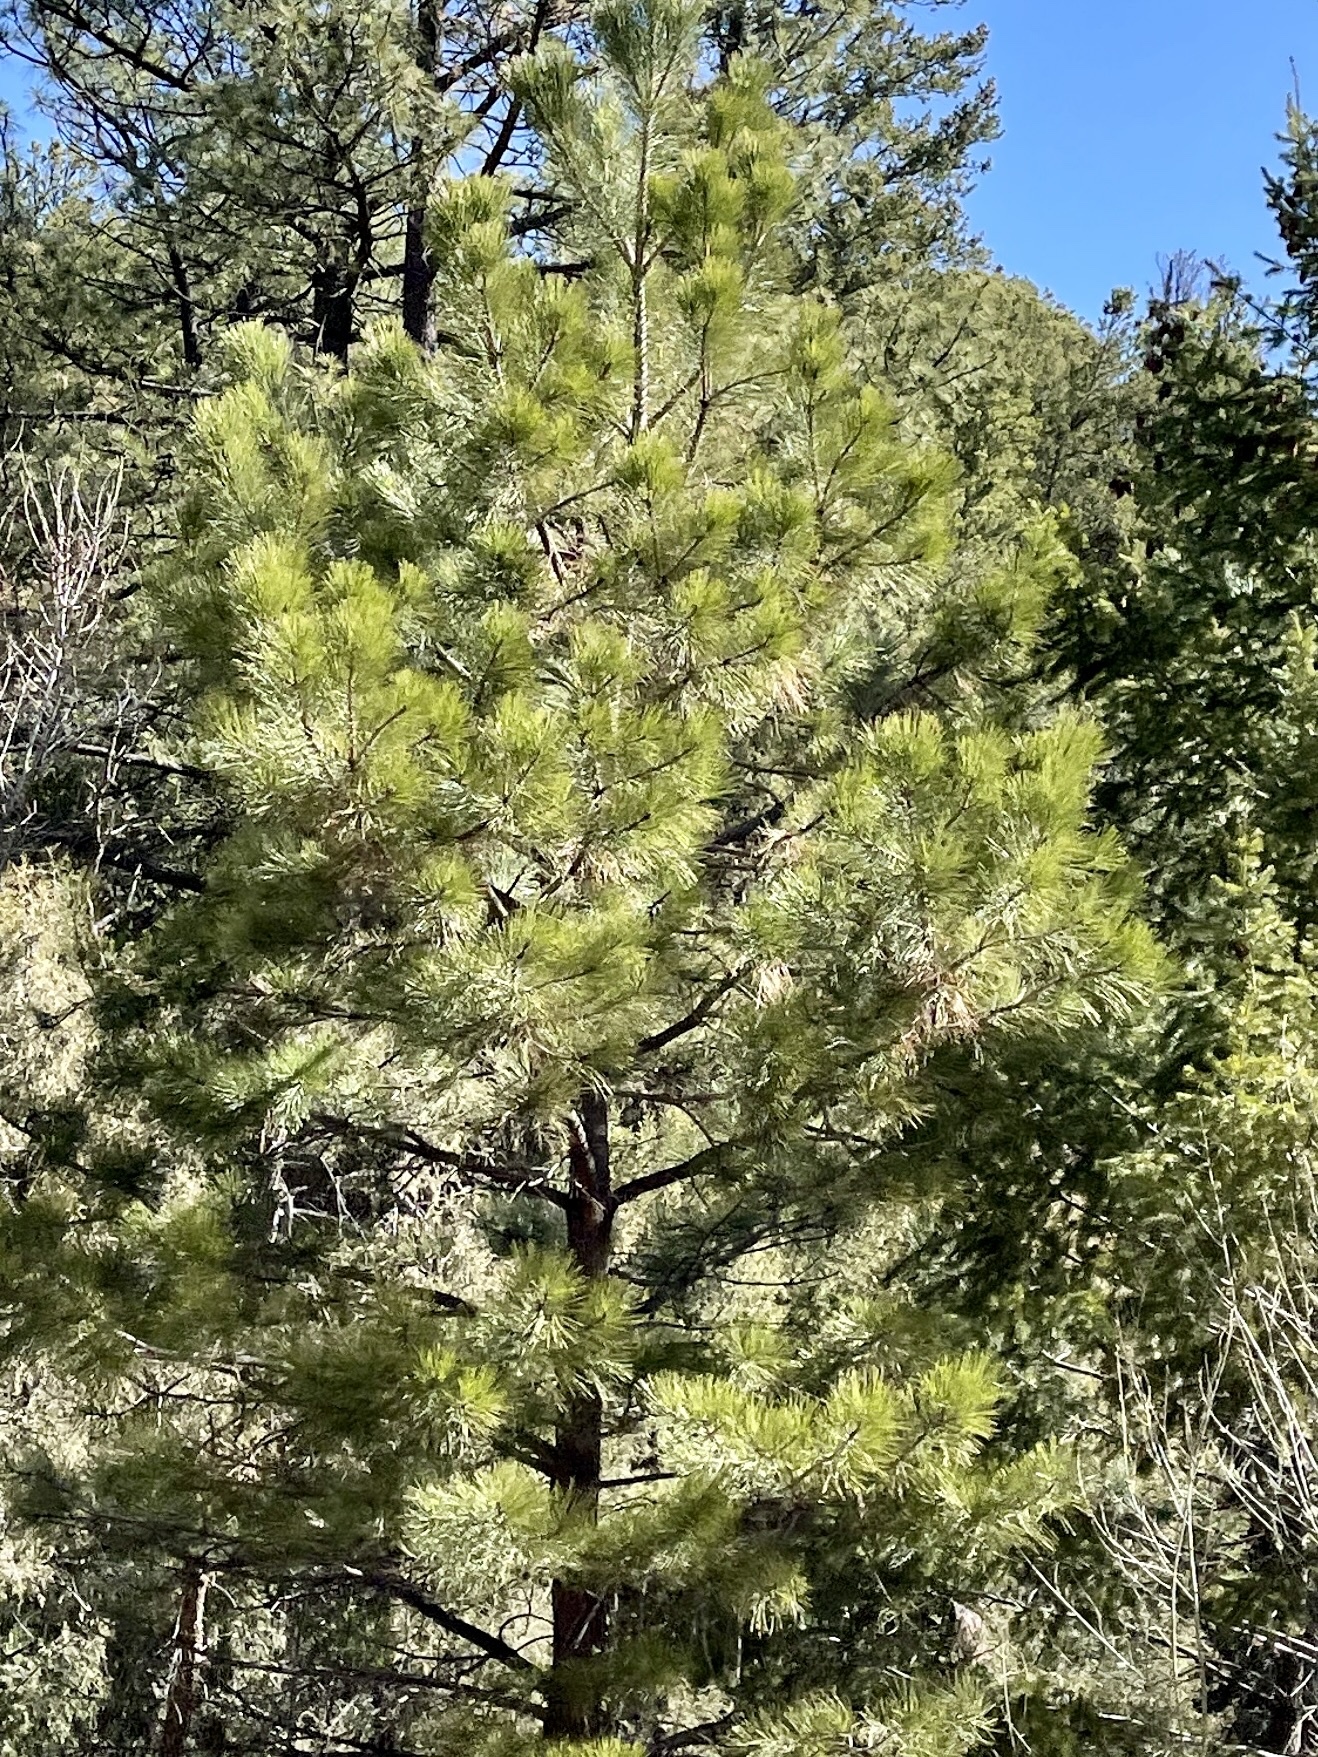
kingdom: Plantae
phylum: Tracheophyta
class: Pinopsida
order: Pinales
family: Pinaceae
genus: Pinus
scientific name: Pinus ponderosa
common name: Western yellow-pine
